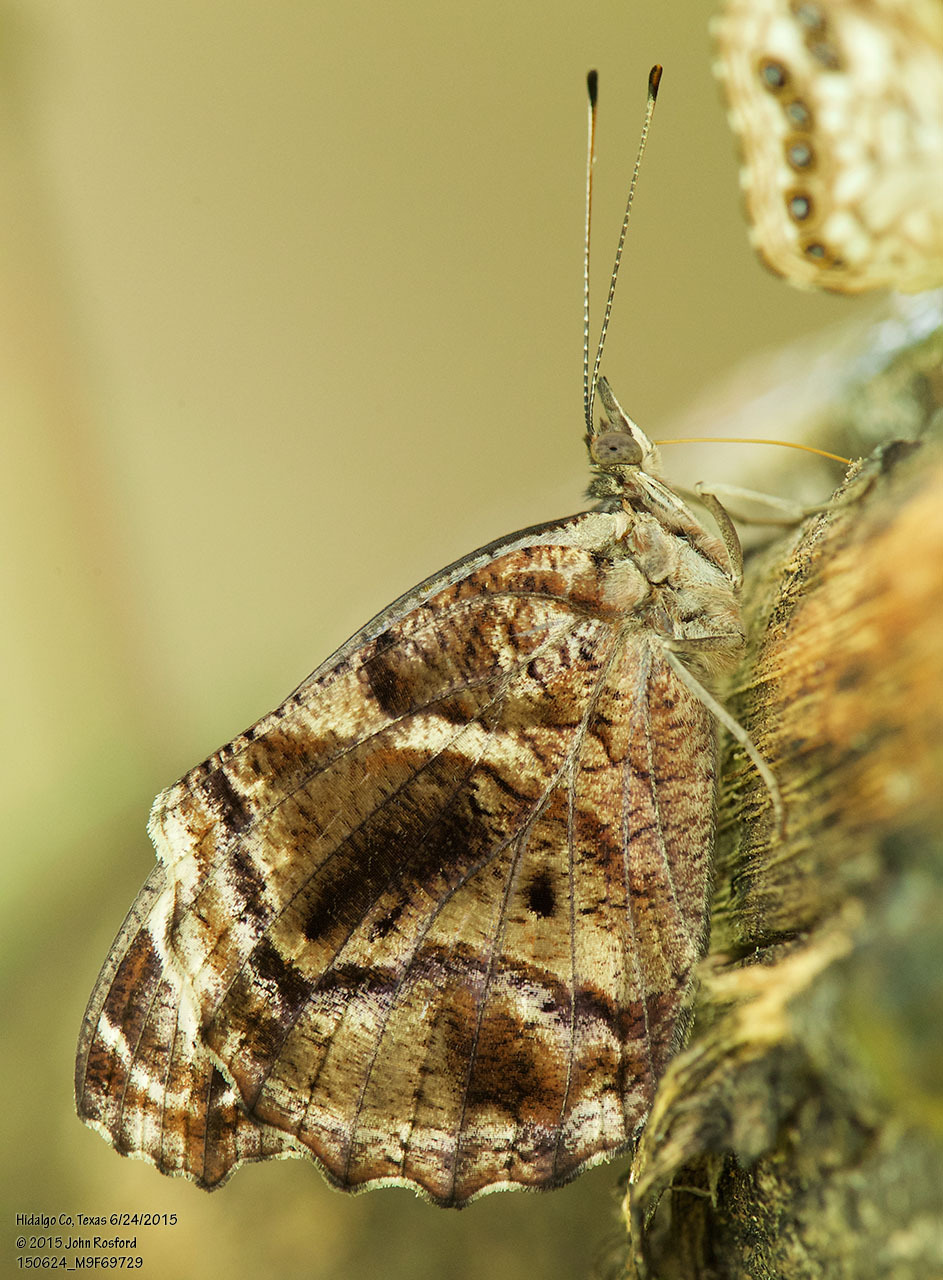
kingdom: Animalia
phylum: Arthropoda
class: Insecta
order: Lepidoptera
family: Nymphalidae
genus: Myscelia
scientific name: Myscelia ethusa
